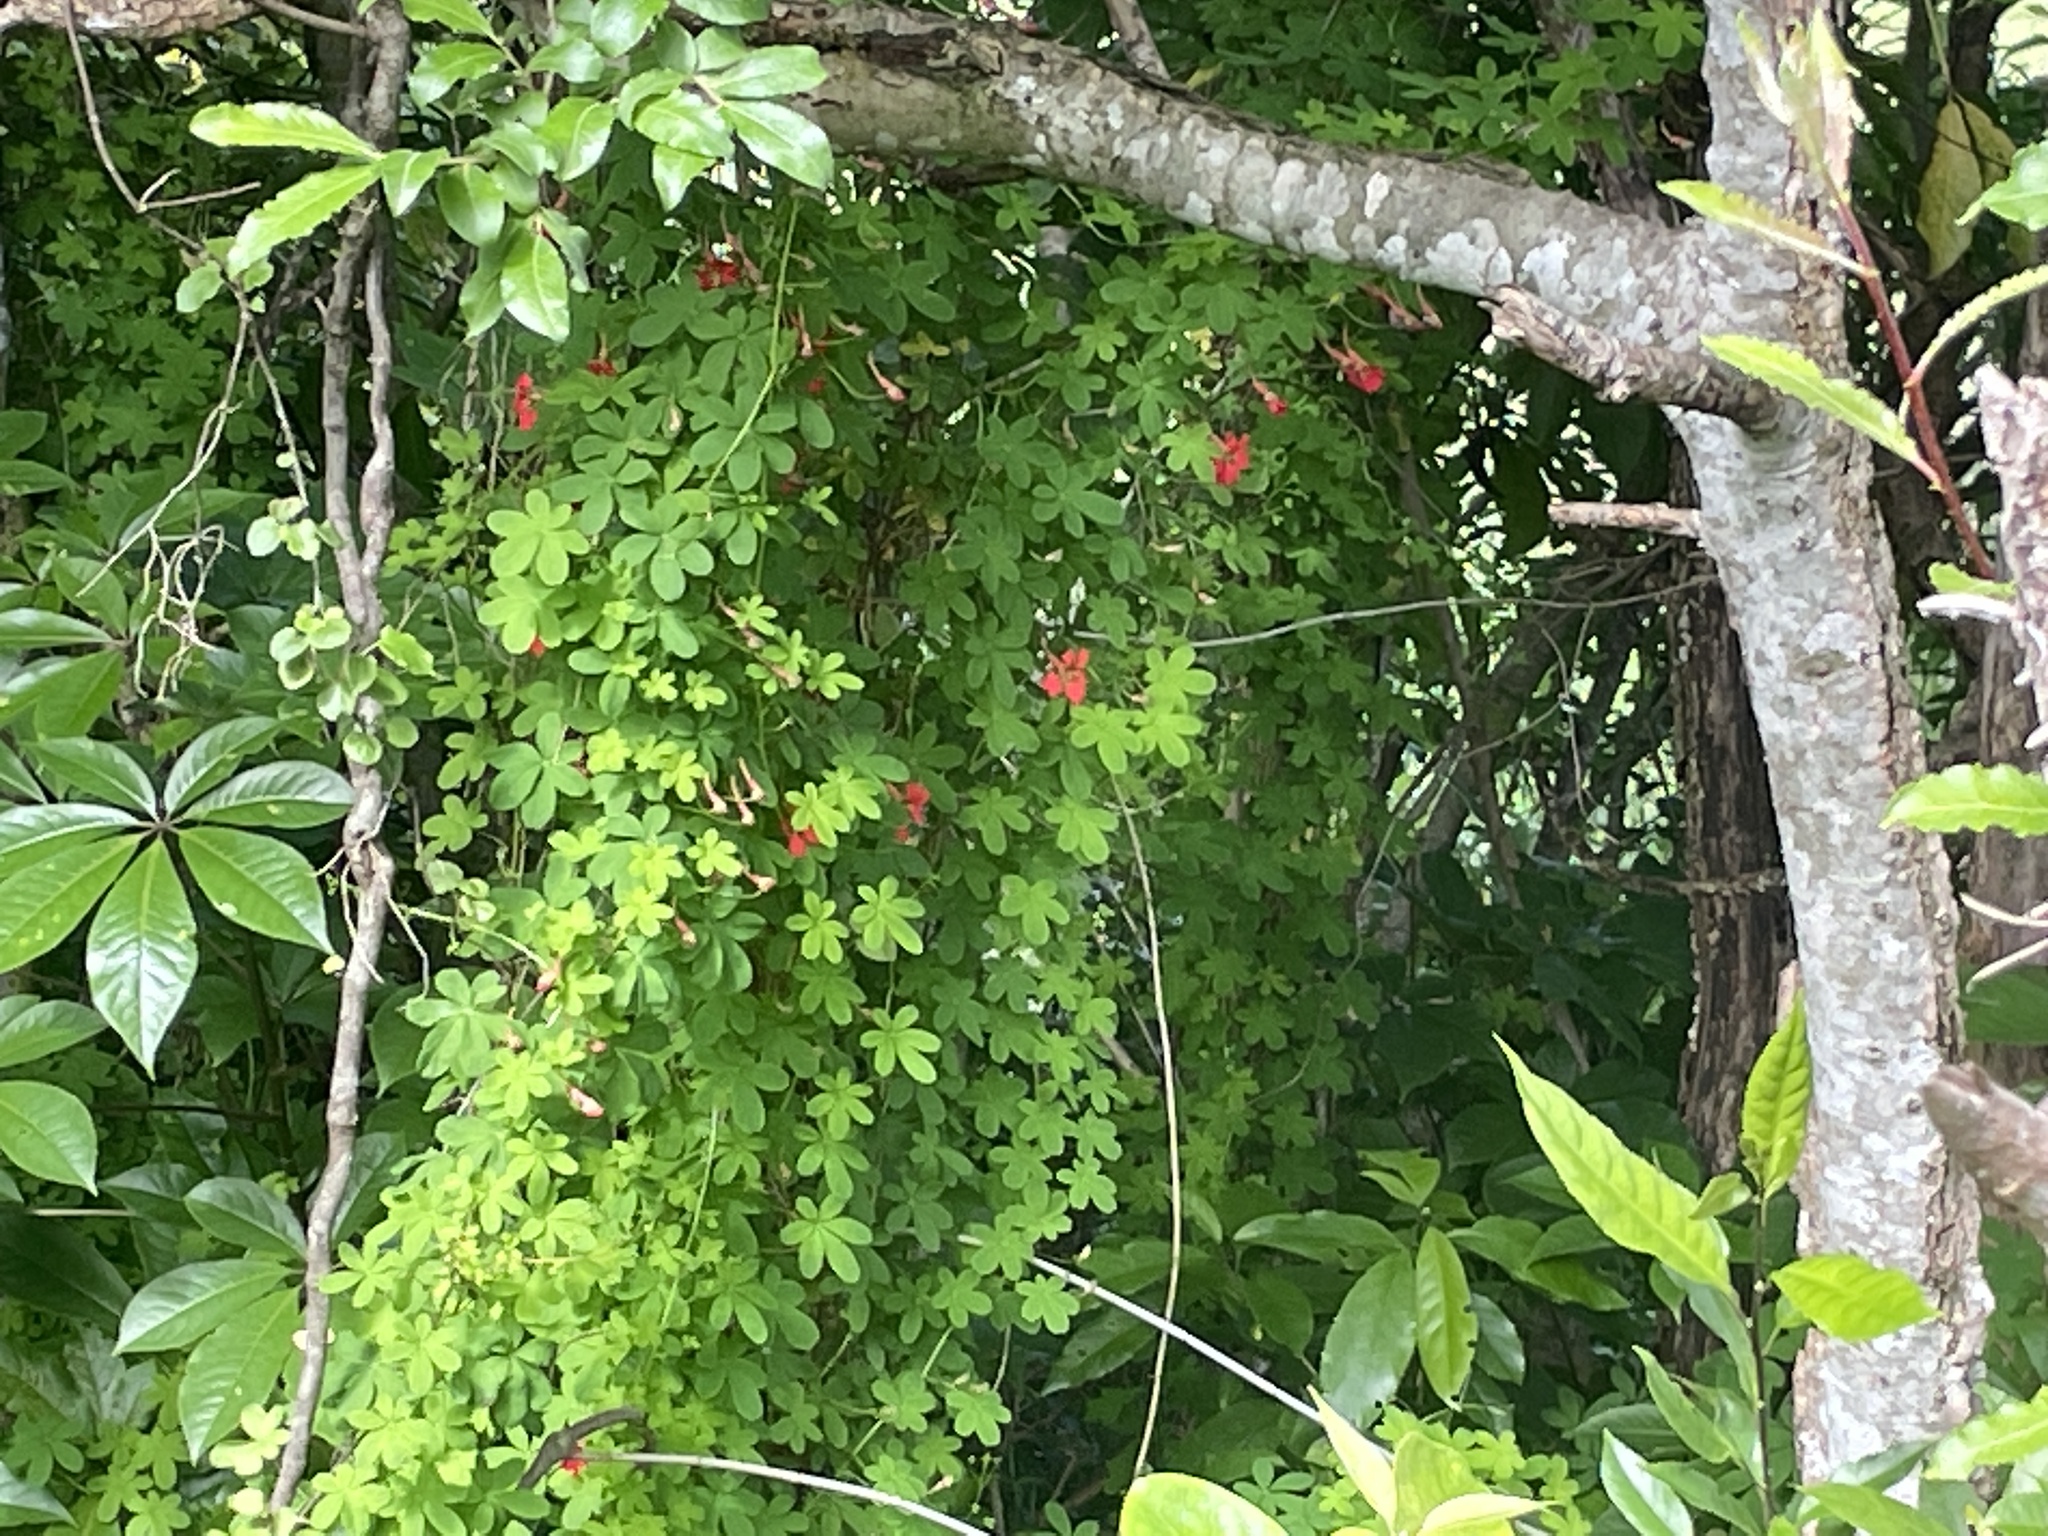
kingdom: Plantae
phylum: Tracheophyta
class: Magnoliopsida
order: Brassicales
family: Tropaeolaceae
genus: Tropaeolum
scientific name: Tropaeolum speciosum
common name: Flame nasturtium
